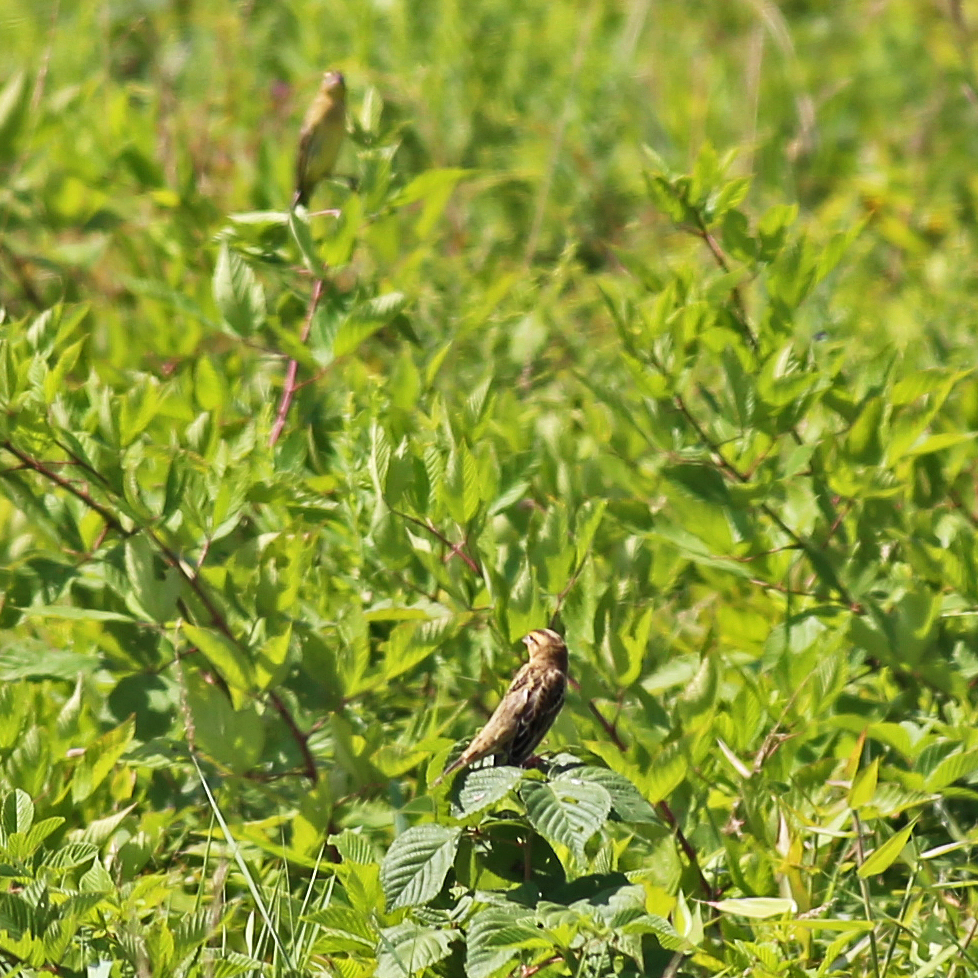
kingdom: Animalia
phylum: Chordata
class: Aves
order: Passeriformes
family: Icteridae
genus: Dolichonyx
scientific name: Dolichonyx oryzivorus
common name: Bobolink
